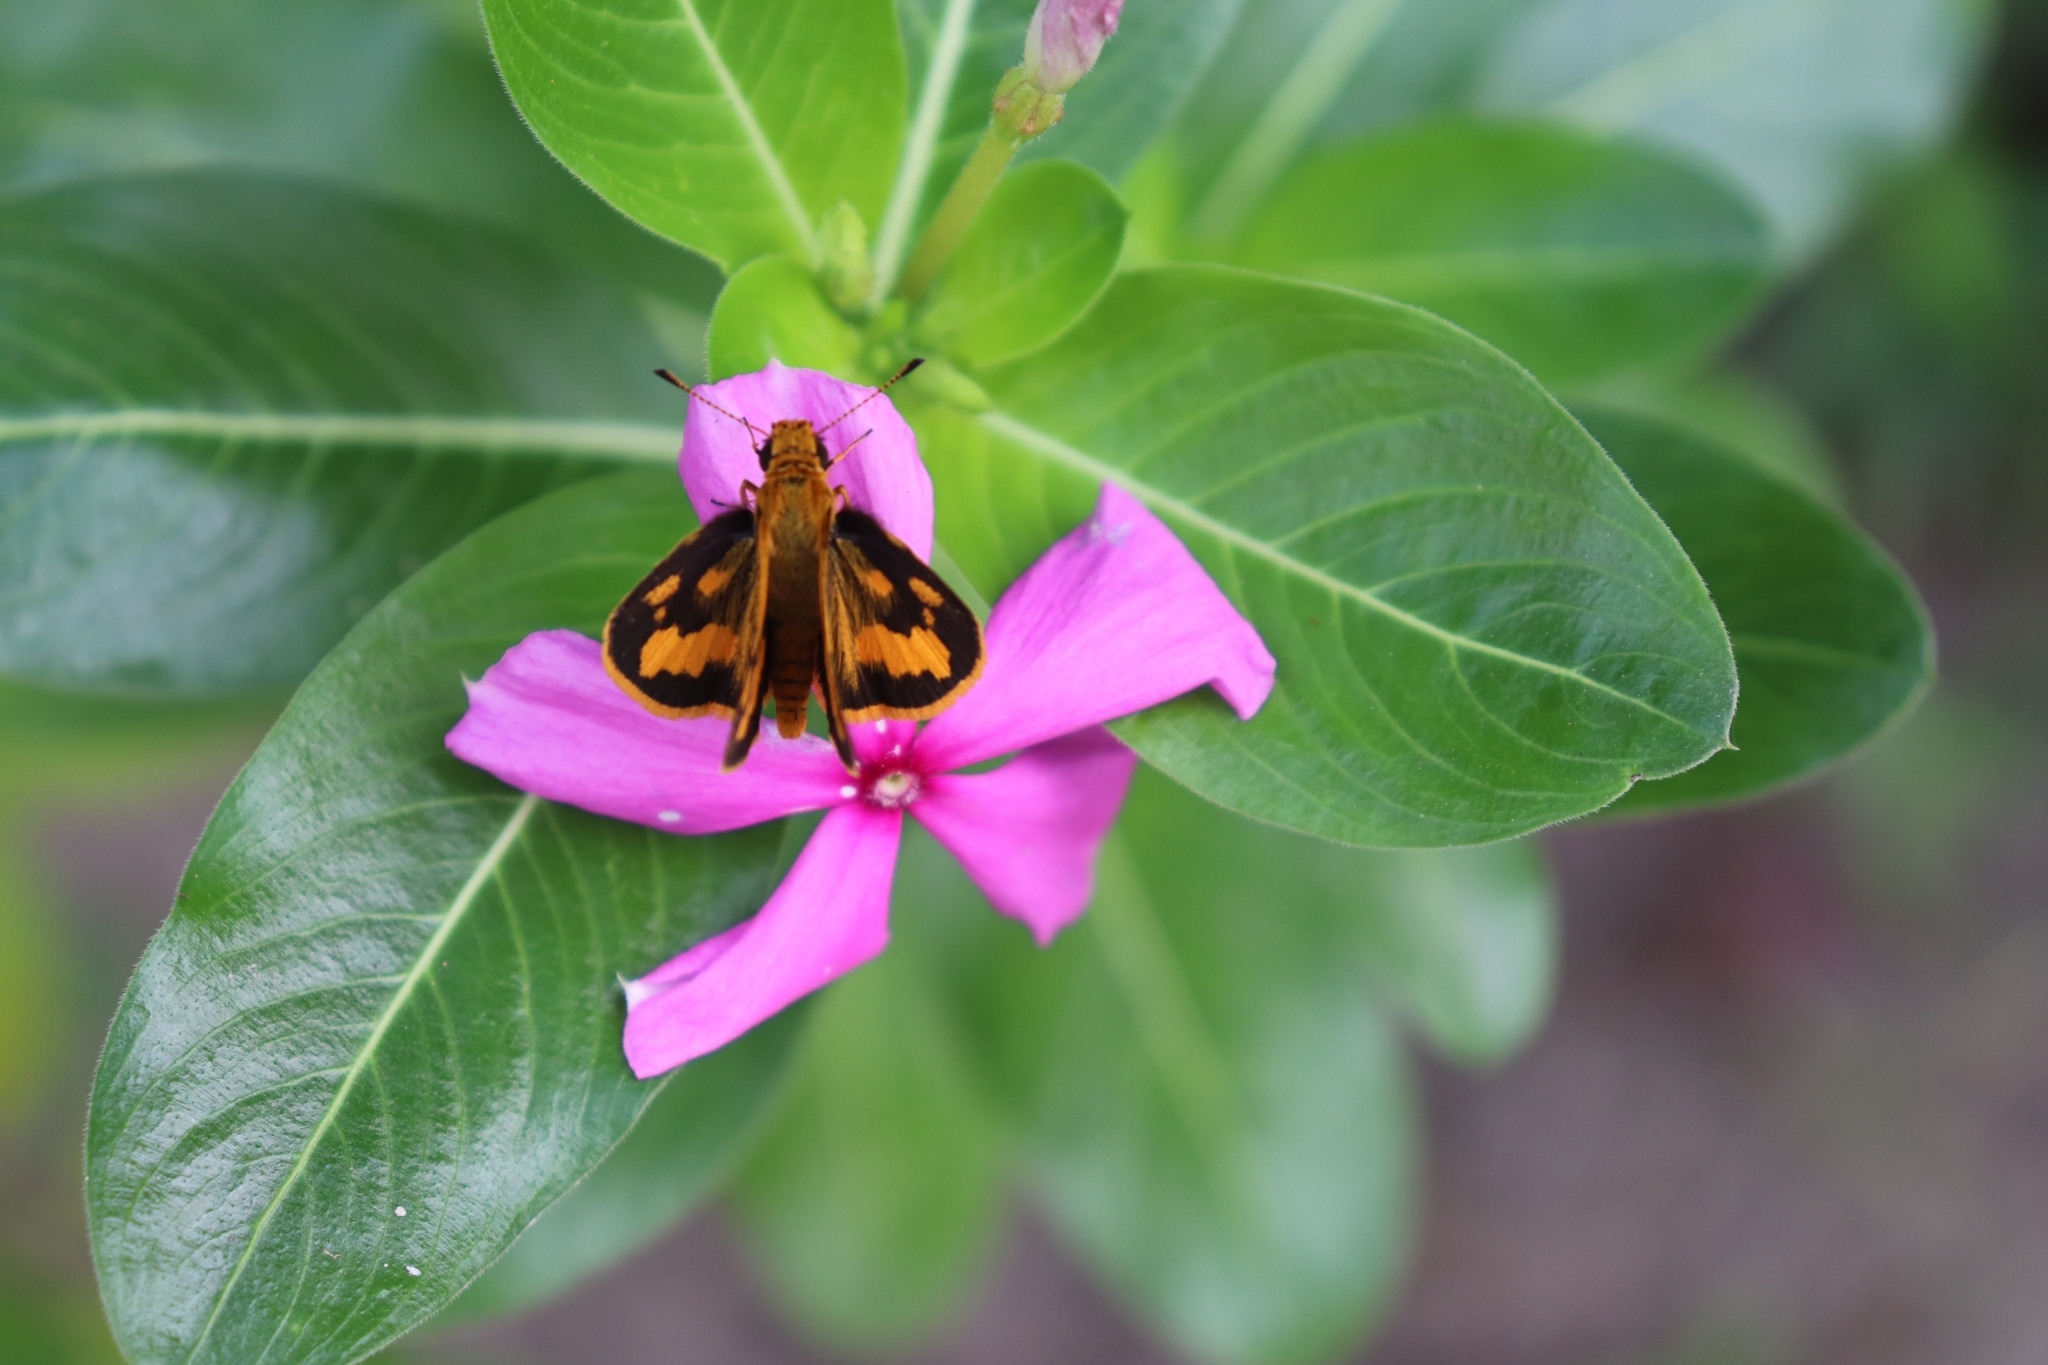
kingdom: Animalia
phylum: Arthropoda
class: Insecta
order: Lepidoptera
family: Hesperiidae
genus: Taractrocera
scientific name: Taractrocera
